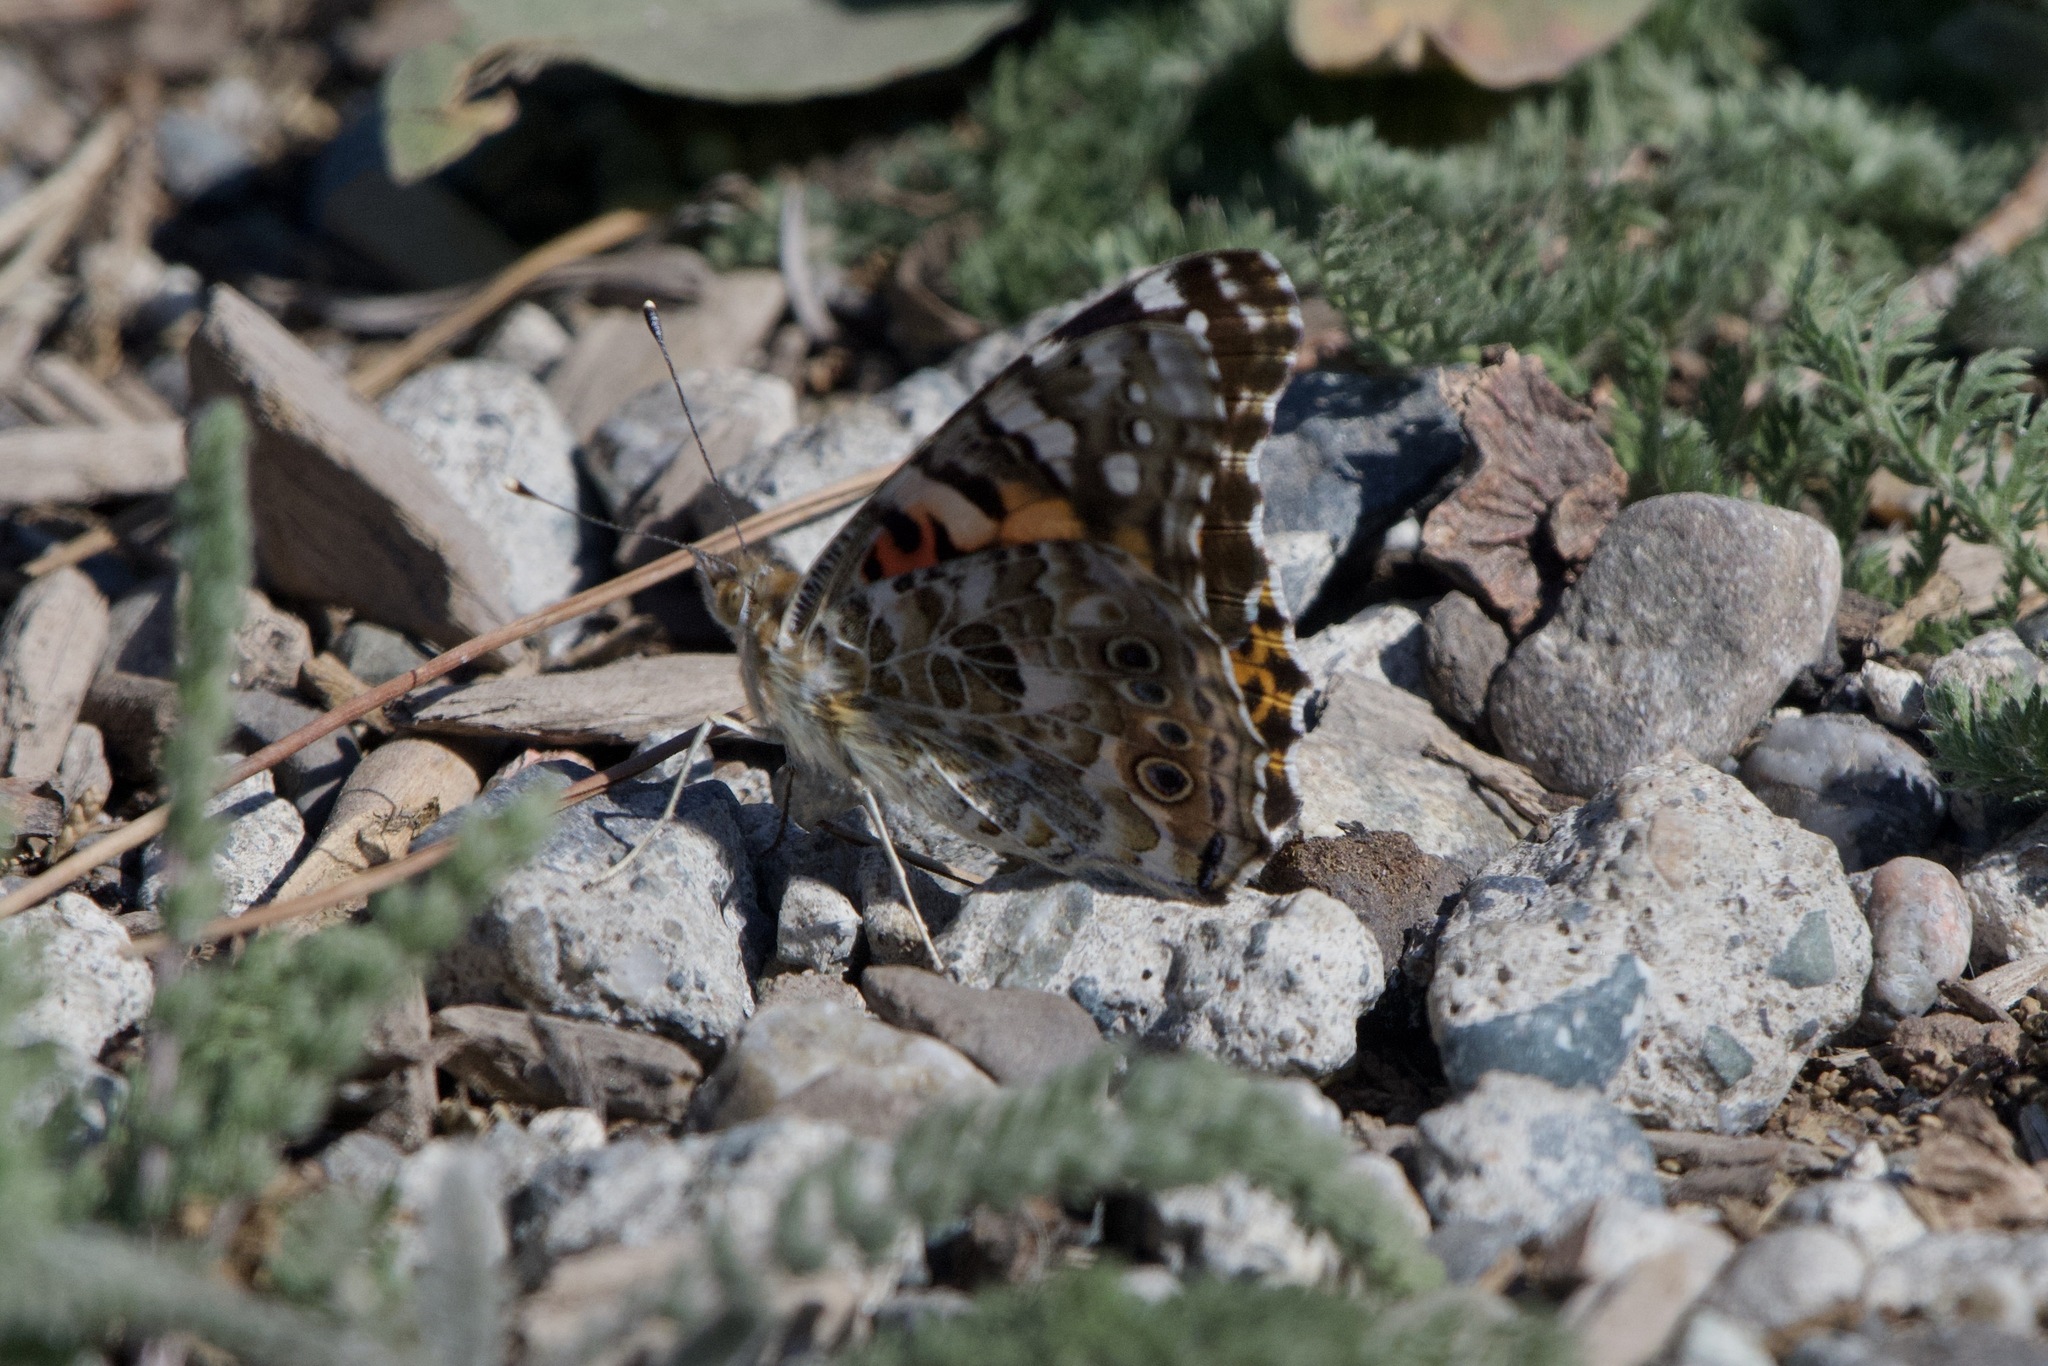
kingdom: Animalia
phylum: Arthropoda
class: Insecta
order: Lepidoptera
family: Nymphalidae
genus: Vanessa
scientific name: Vanessa cardui
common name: Painted lady
